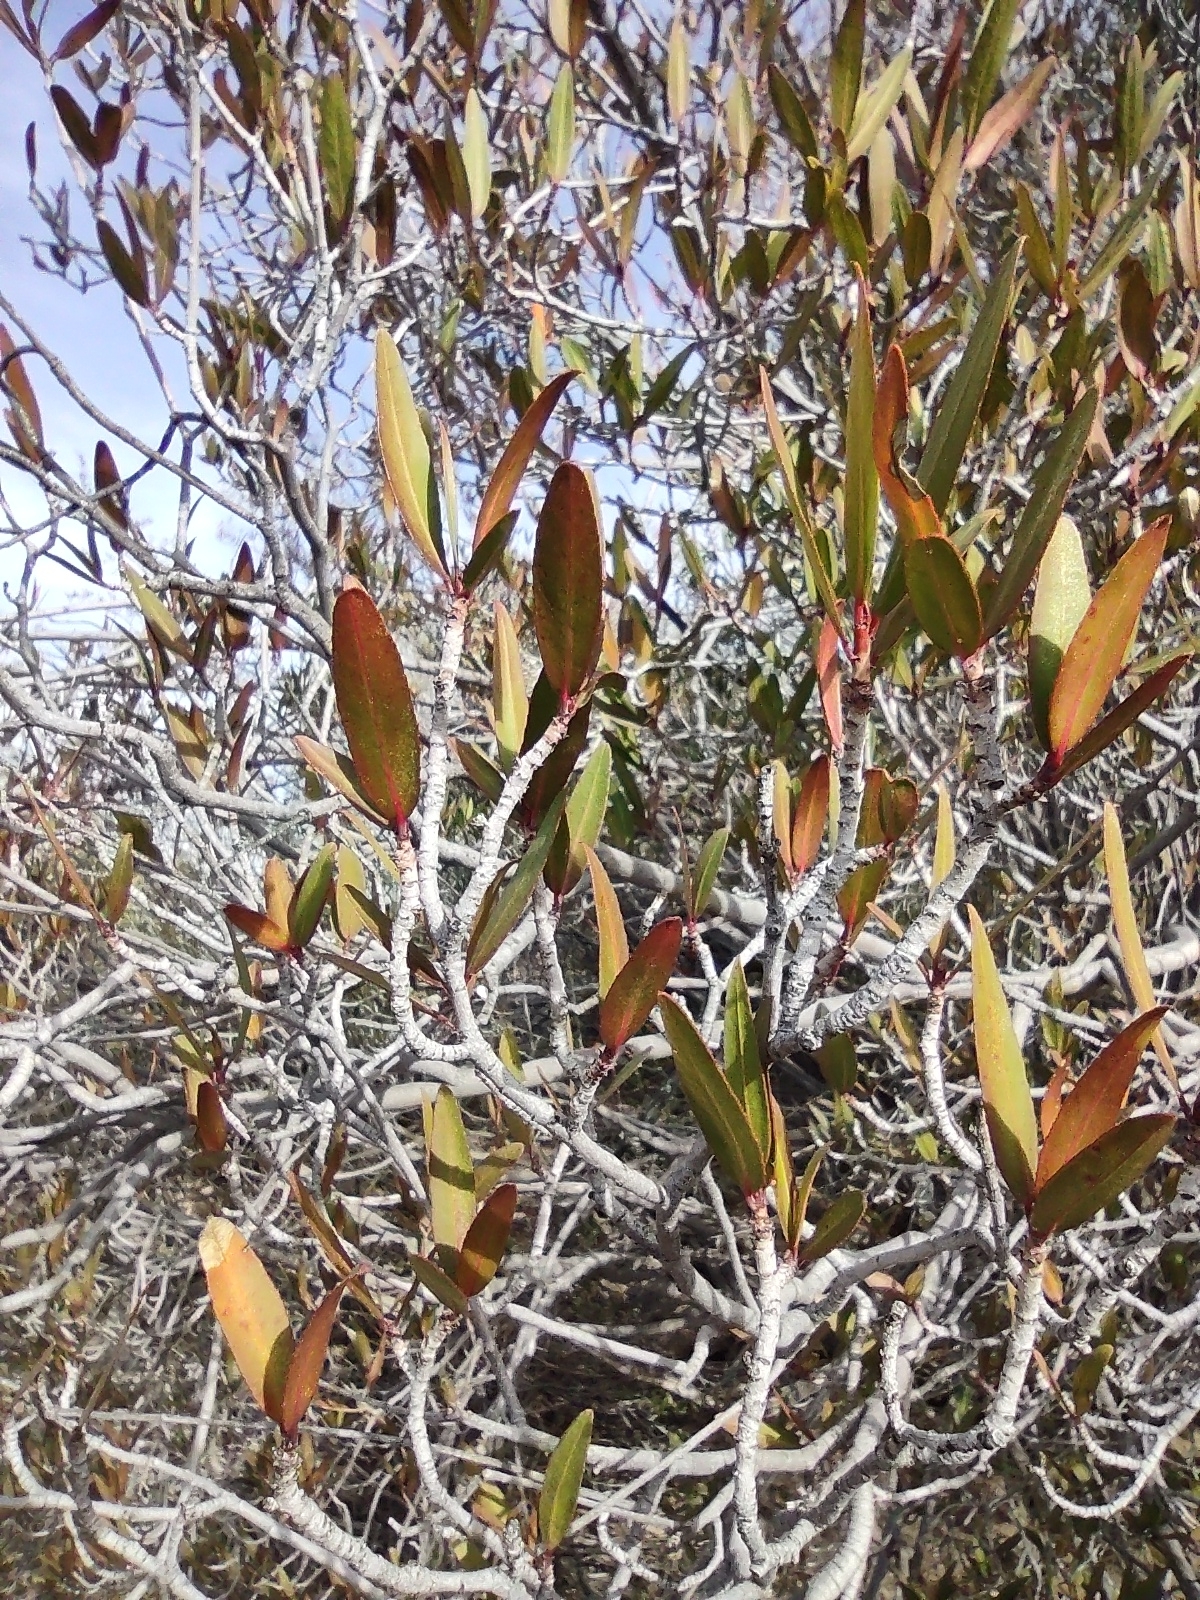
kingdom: Plantae
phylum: Tracheophyta
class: Magnoliopsida
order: Malpighiales
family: Euphorbiaceae
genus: Pleradenophora
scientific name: Pleradenophora bilocularis
